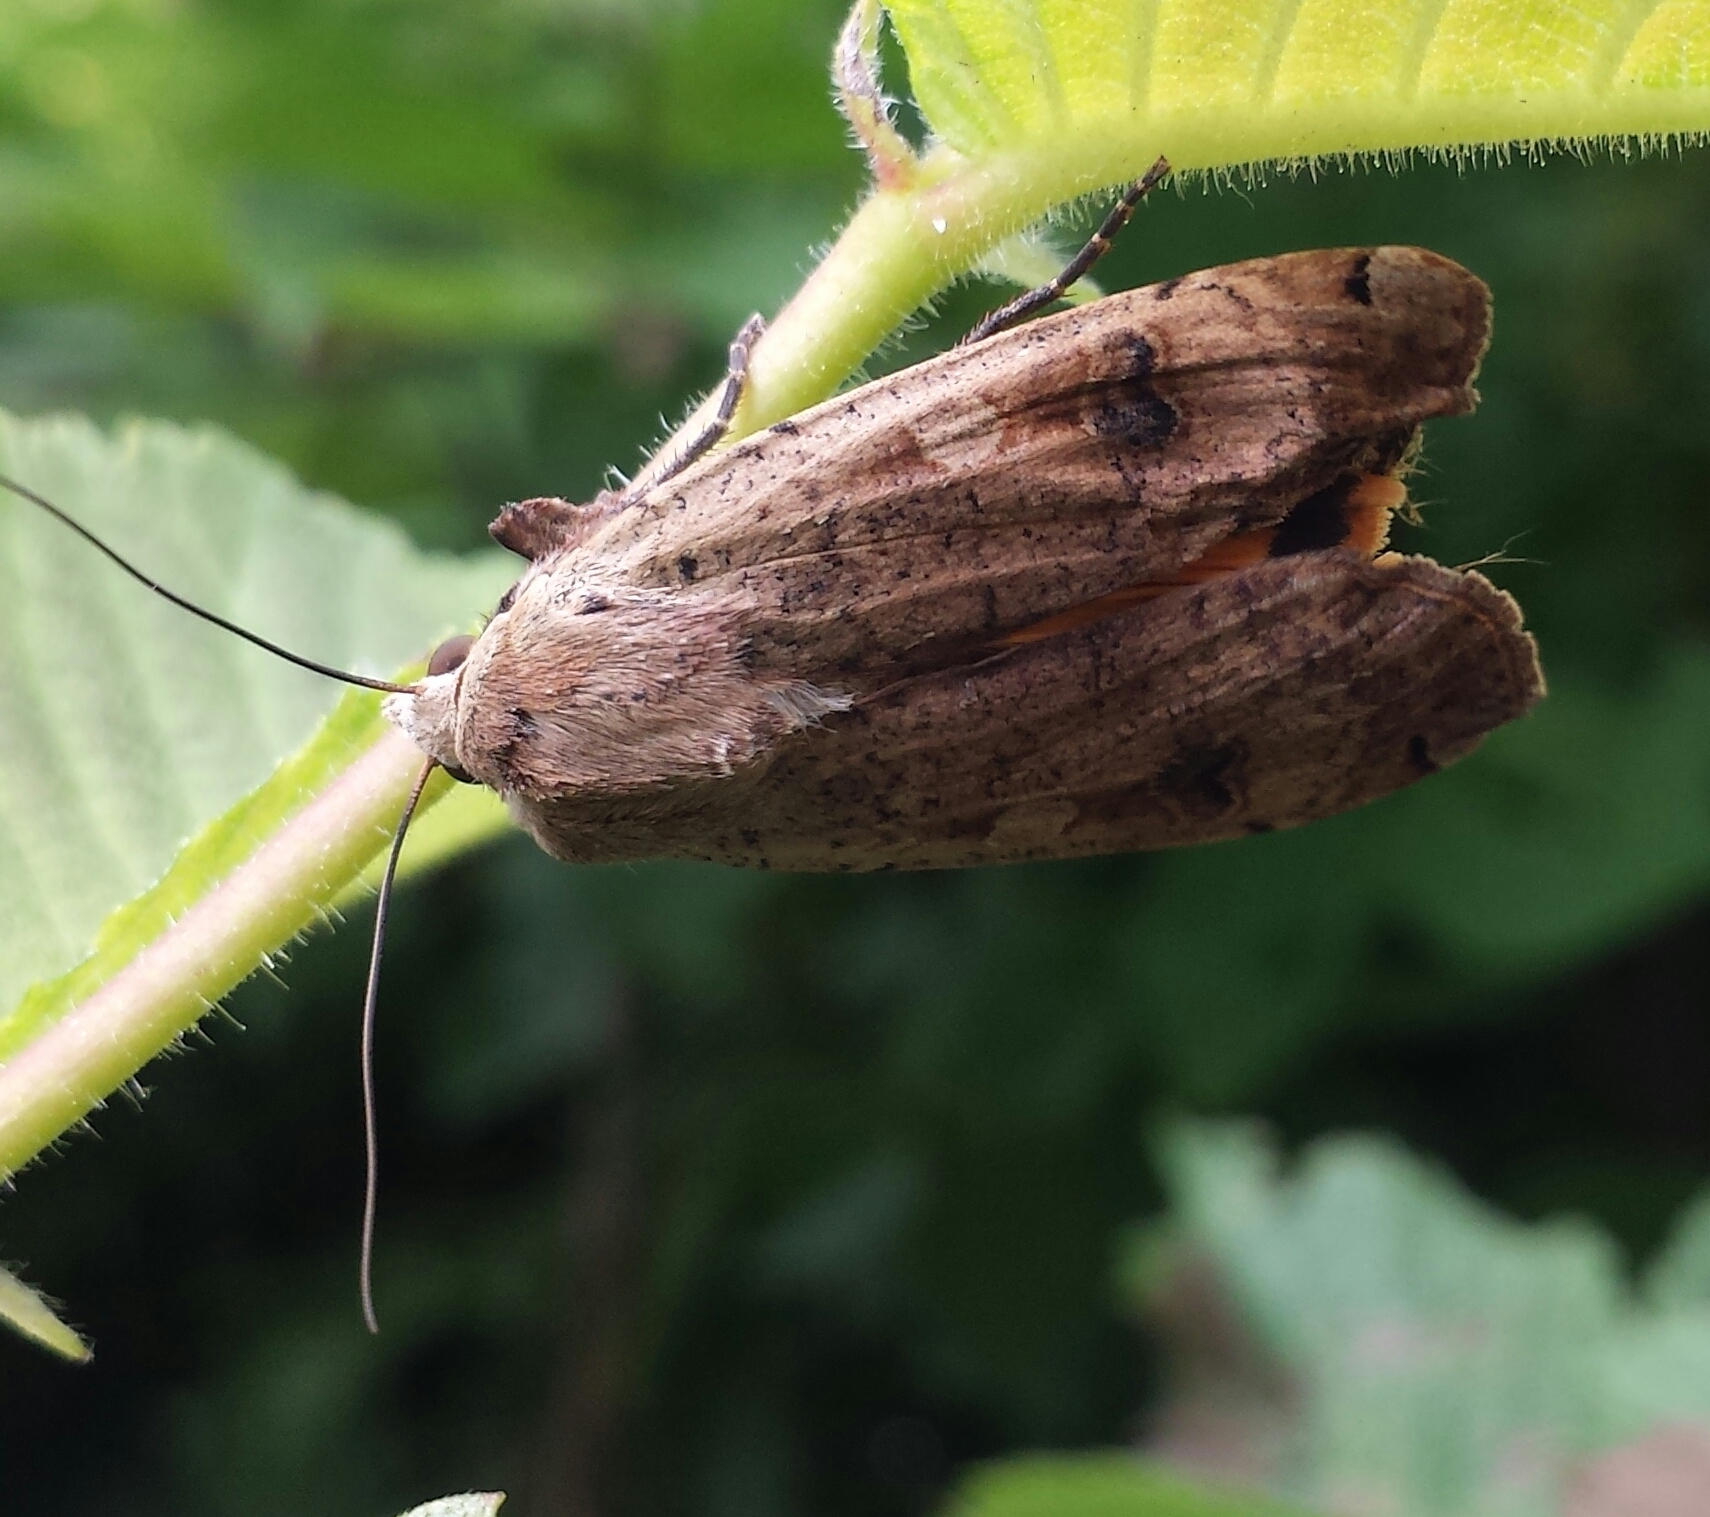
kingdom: Animalia
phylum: Arthropoda
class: Insecta
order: Lepidoptera
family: Noctuidae
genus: Noctua
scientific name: Noctua pronuba
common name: Large yellow underwing
